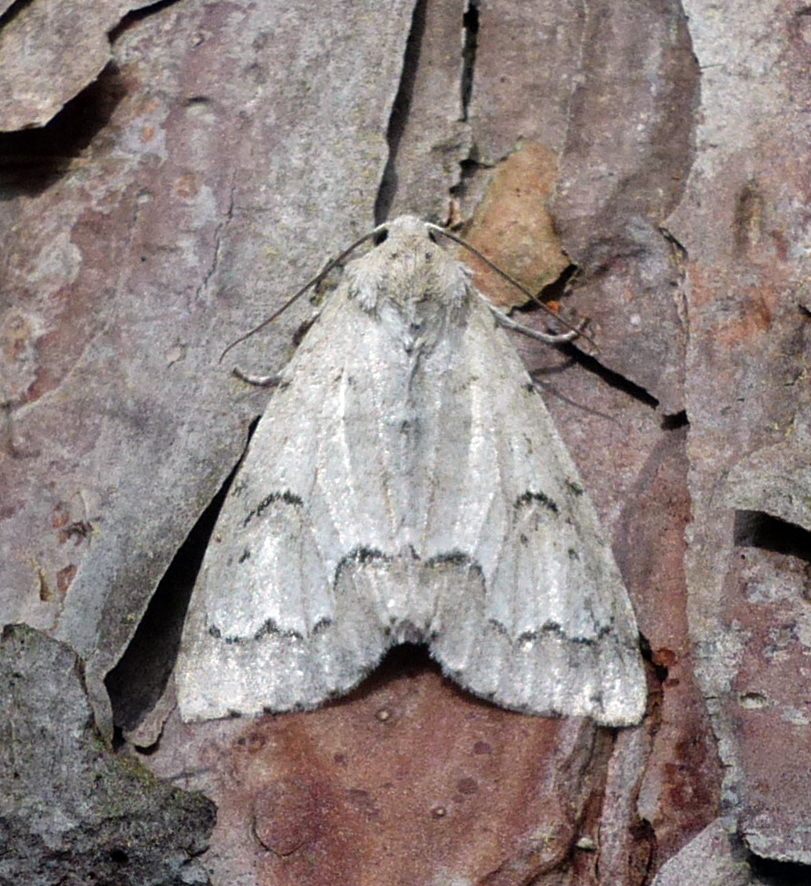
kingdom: Animalia
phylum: Arthropoda
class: Insecta
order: Lepidoptera
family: Noctuidae
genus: Acronicta
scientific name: Acronicta innotata
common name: Unmarked dagger
